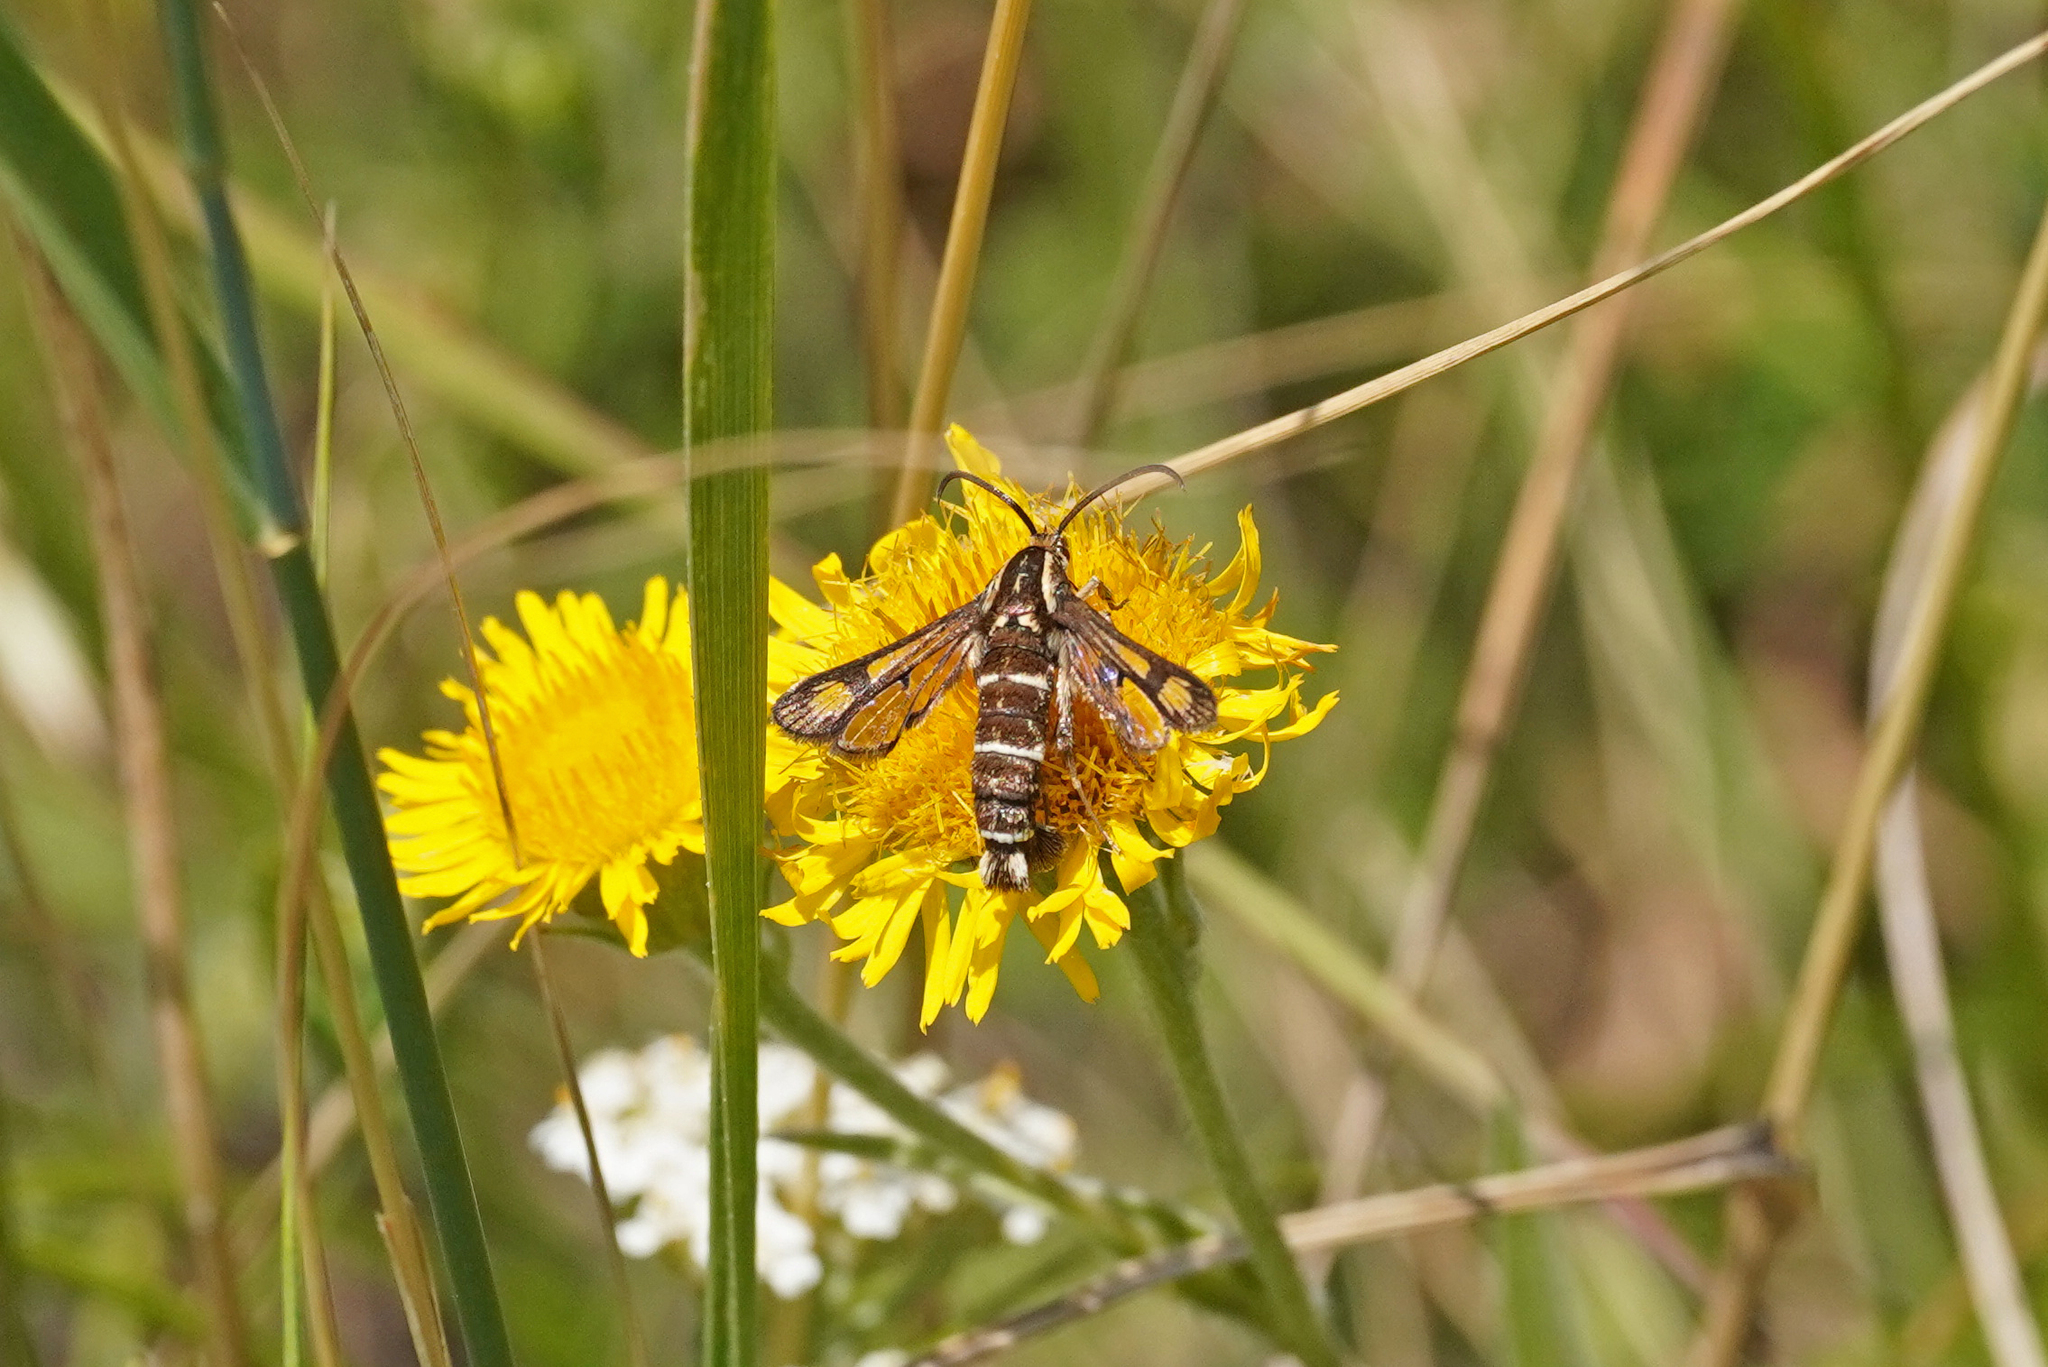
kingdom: Animalia
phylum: Arthropoda
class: Insecta
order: Lepidoptera
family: Sesiidae
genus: Chamaesphecia
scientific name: Chamaesphecia doleriformis
